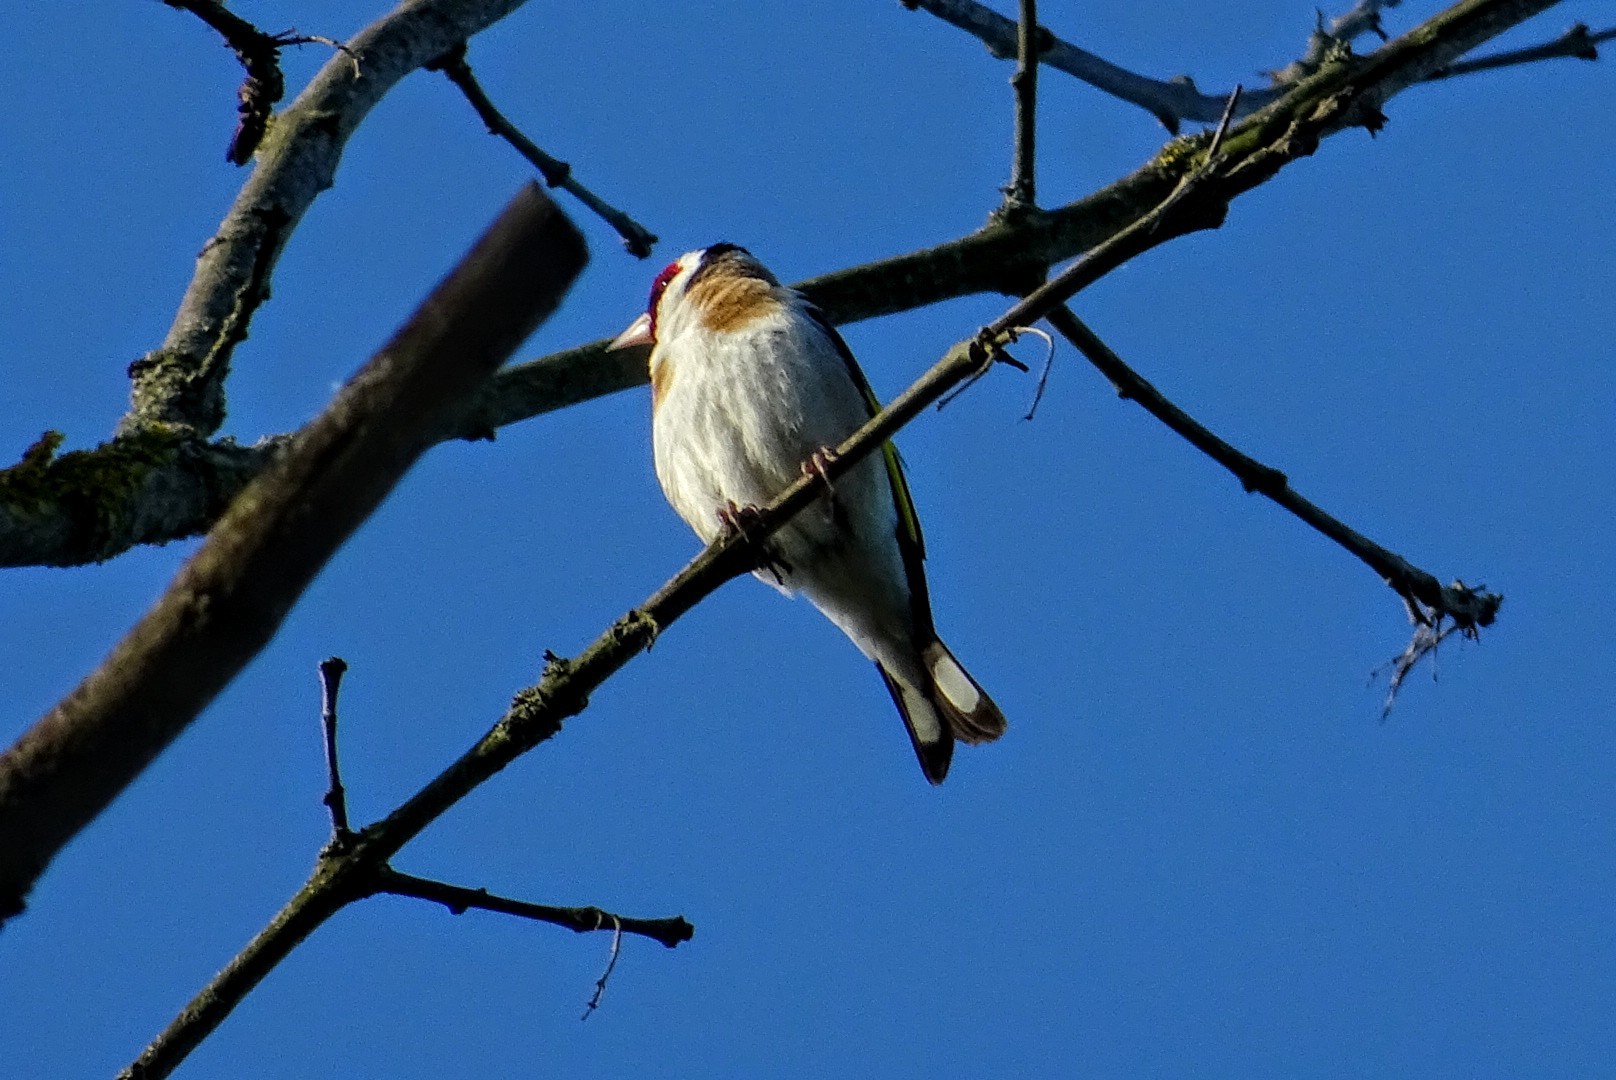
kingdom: Animalia
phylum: Chordata
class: Aves
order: Passeriformes
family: Fringillidae
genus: Carduelis
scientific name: Carduelis carduelis
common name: European goldfinch
